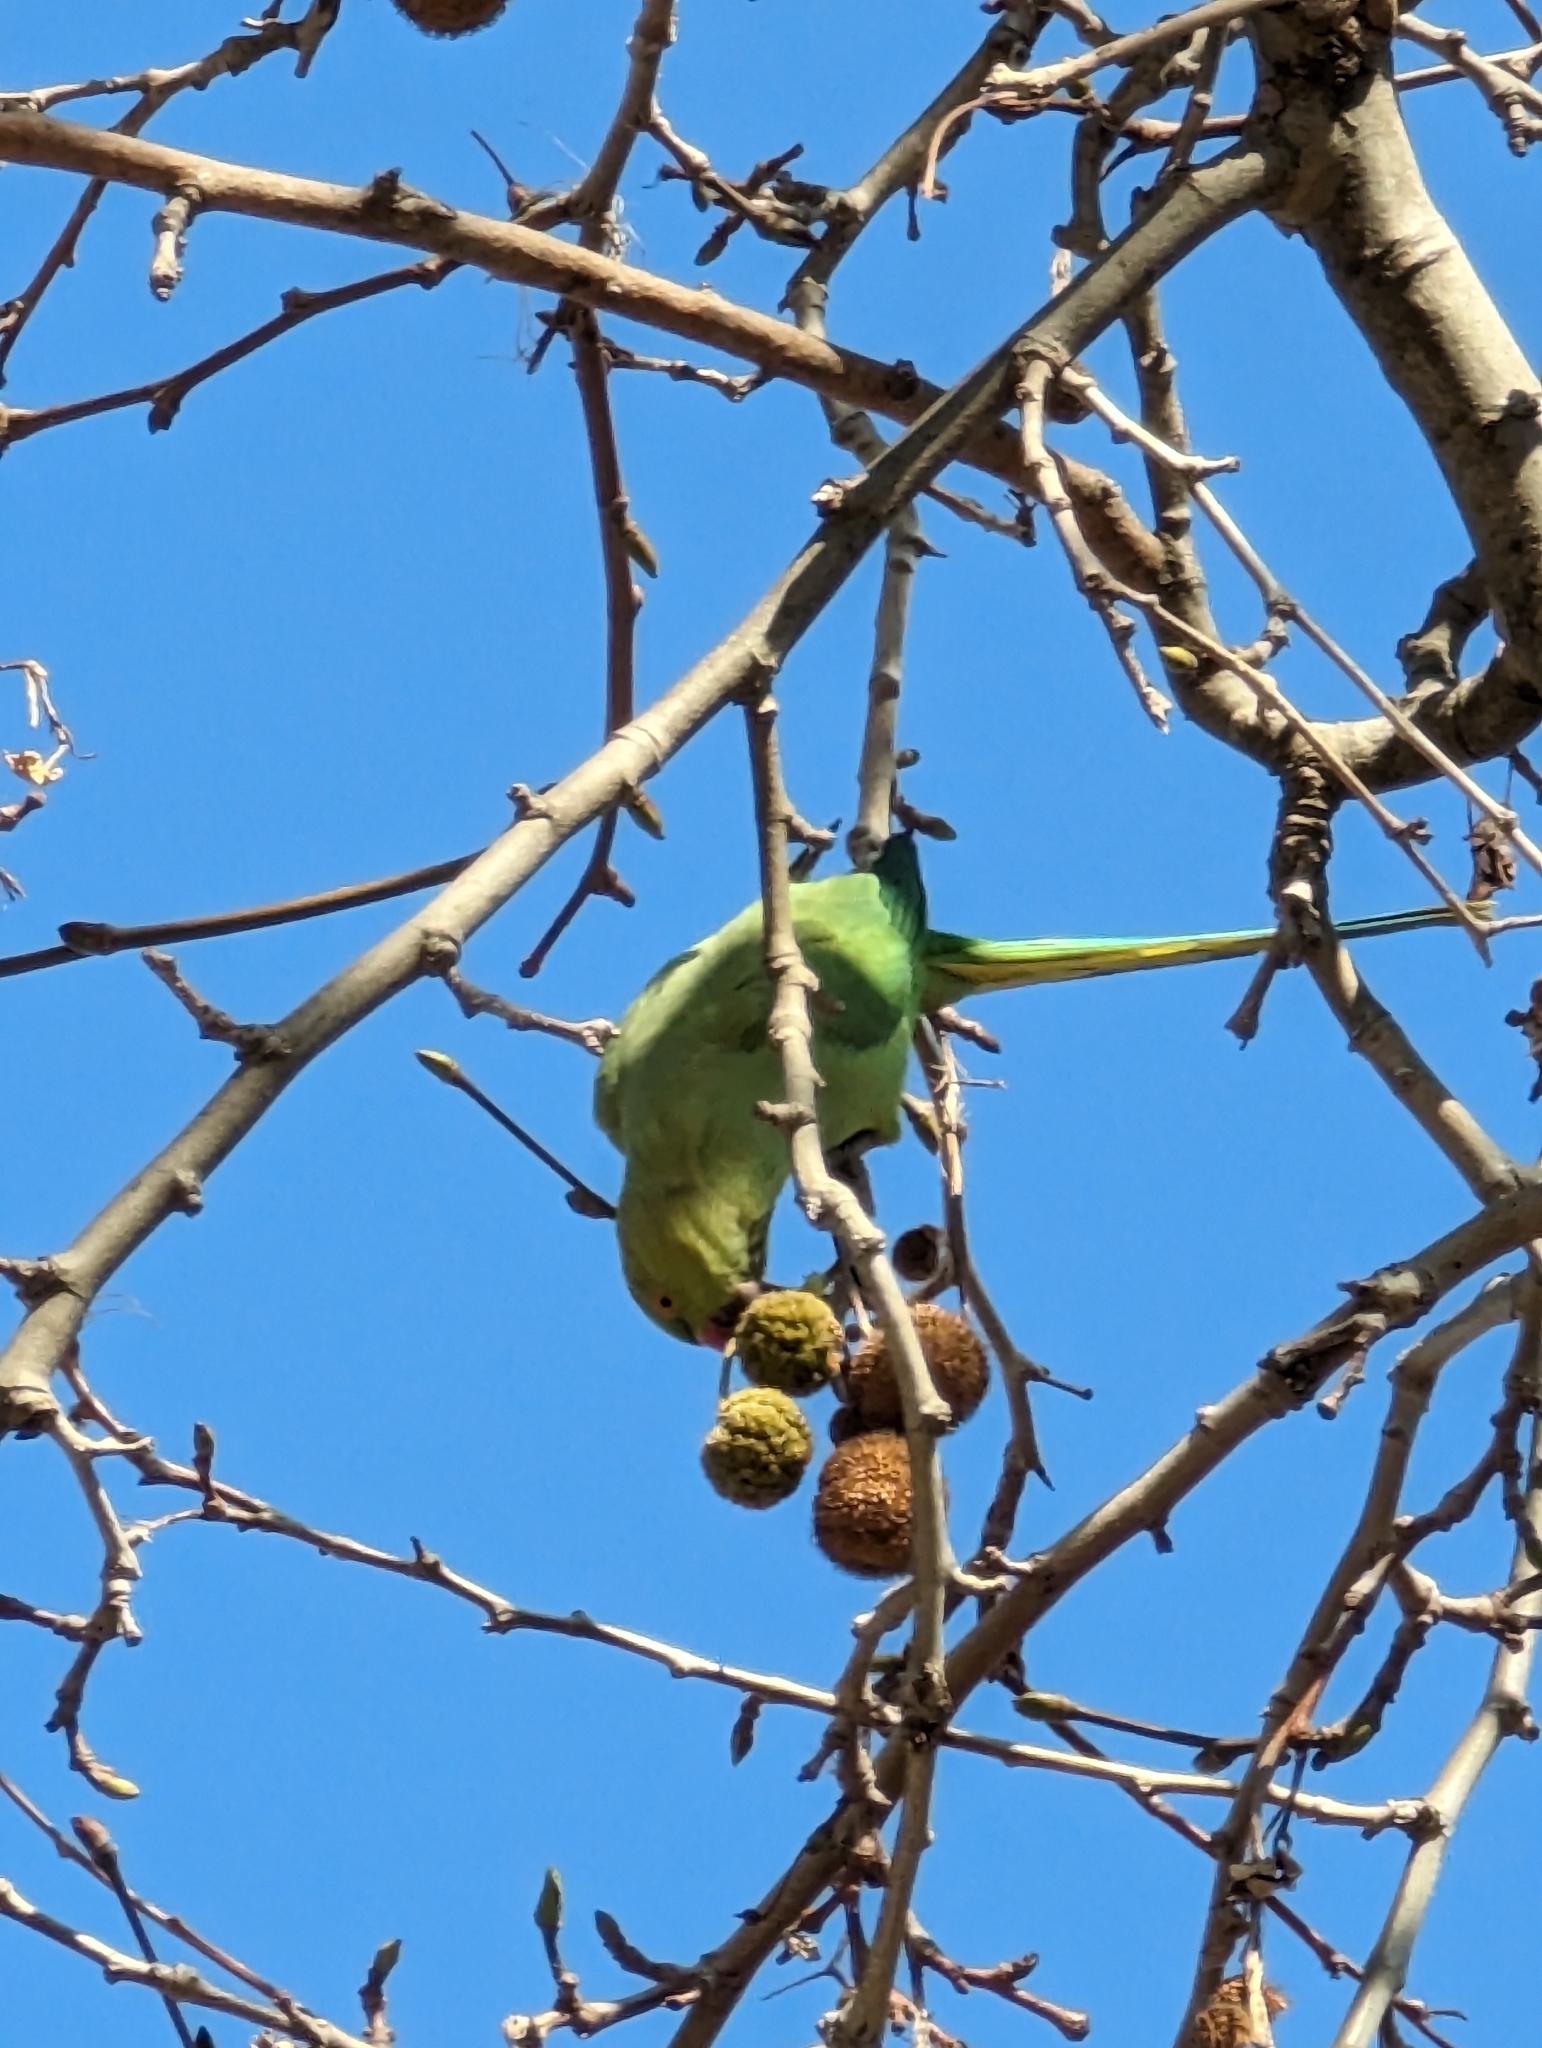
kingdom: Animalia
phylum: Chordata
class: Aves
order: Psittaciformes
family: Psittacidae
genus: Psittacula
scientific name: Psittacula krameri
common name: Rose-ringed parakeet
